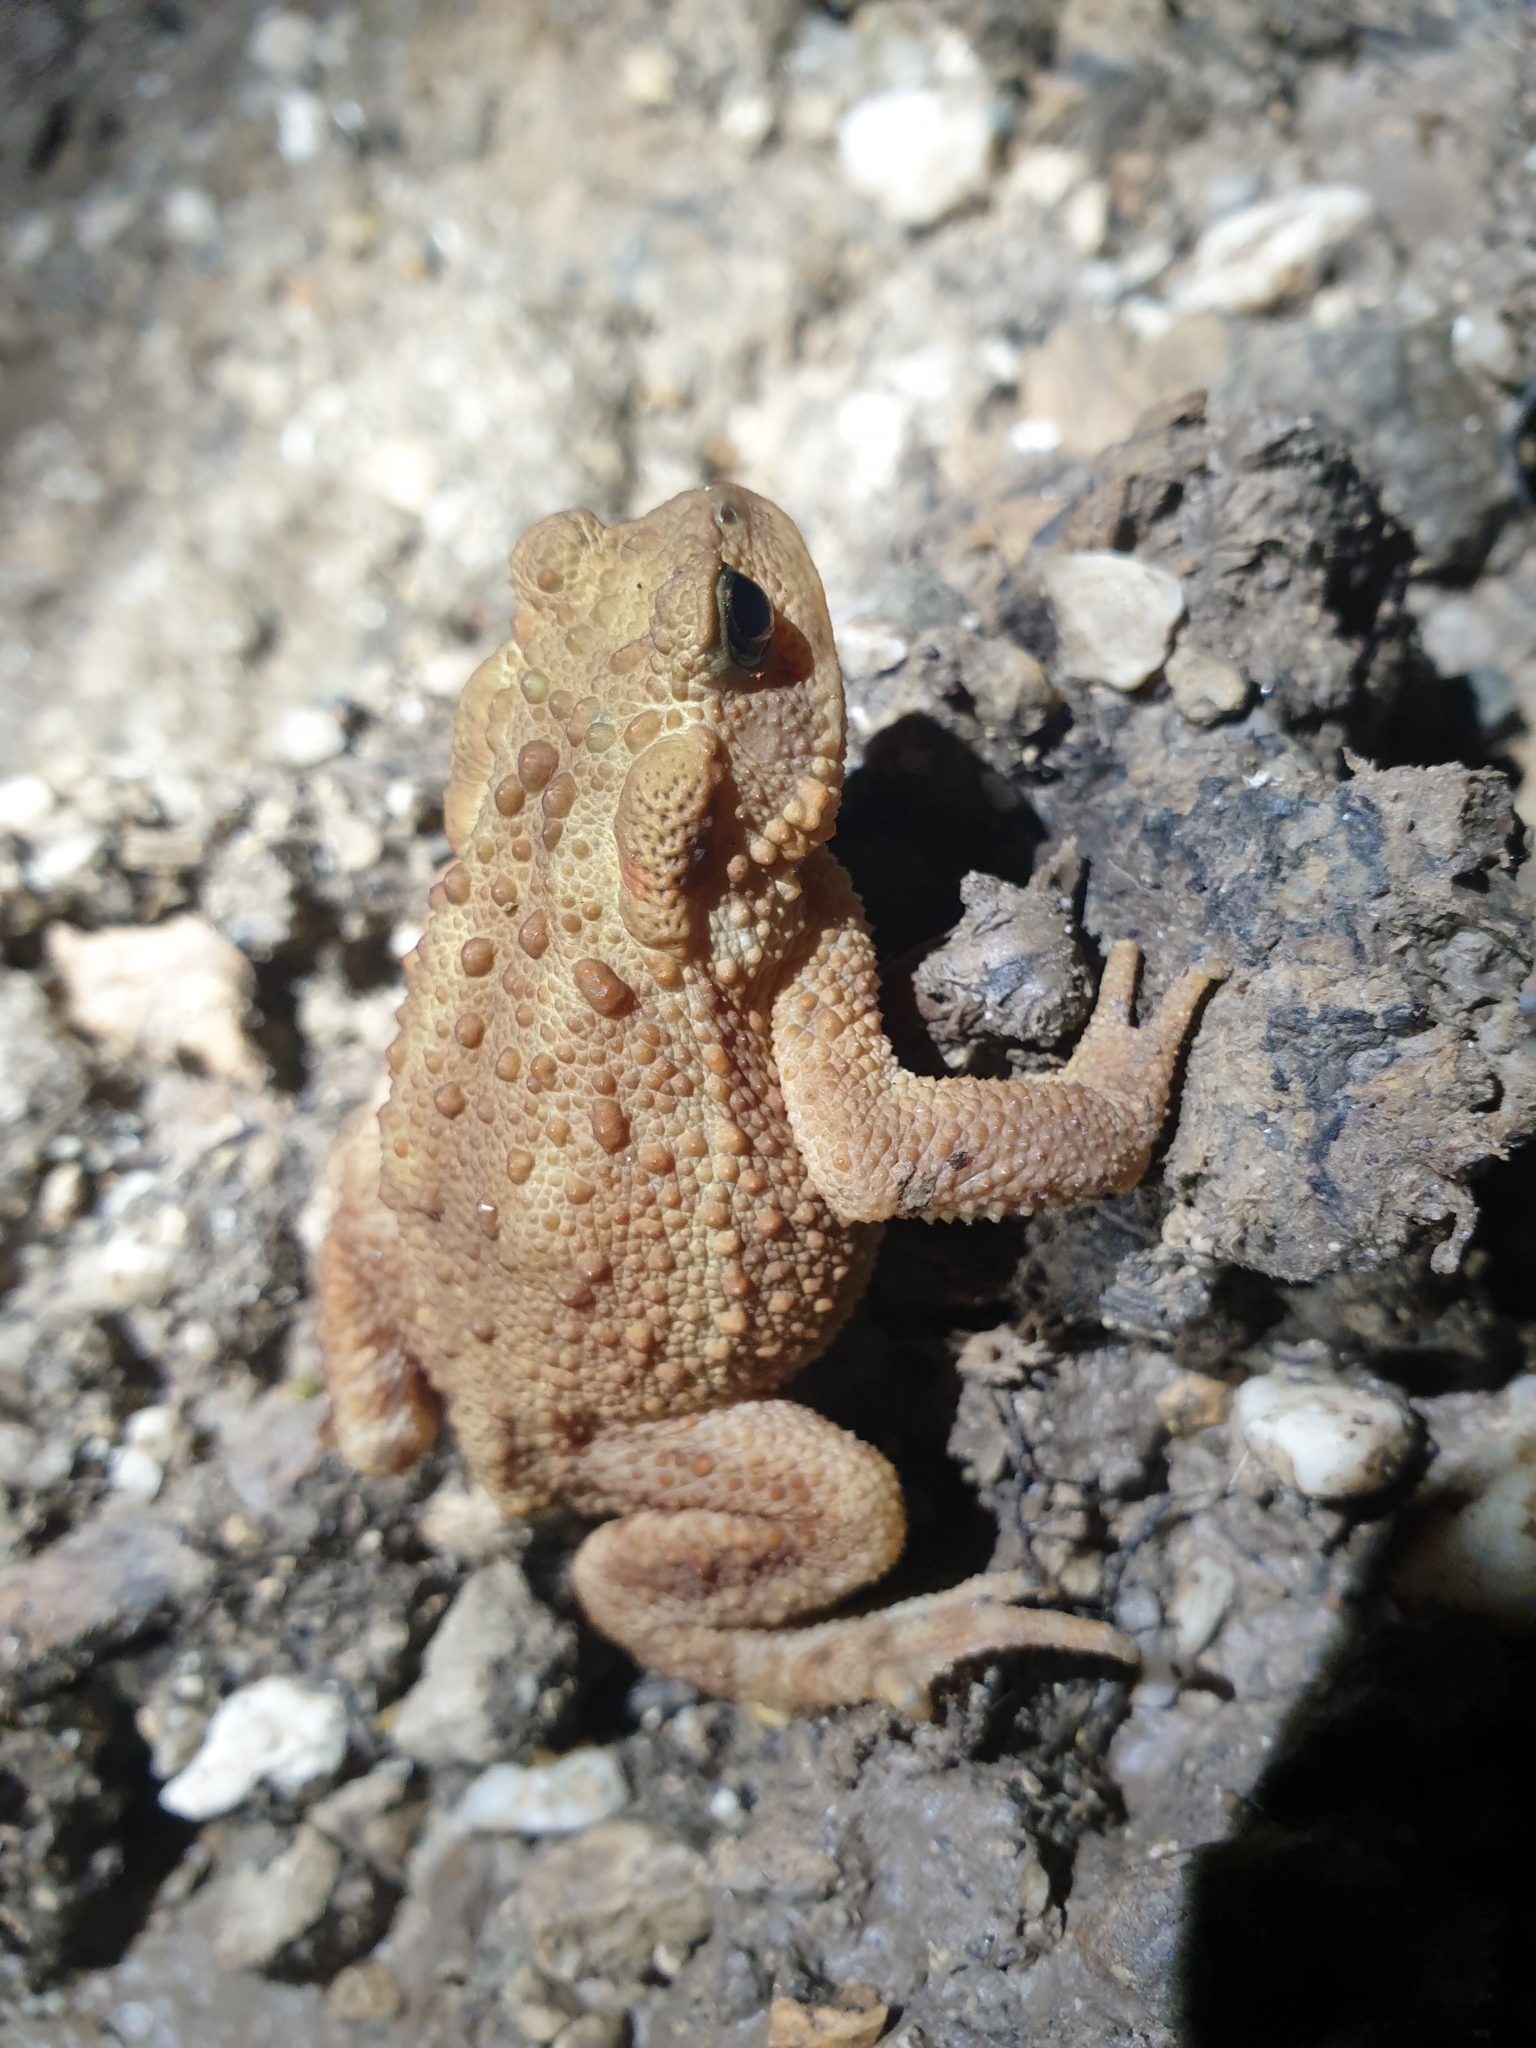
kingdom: Animalia
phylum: Chordata
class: Amphibia
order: Anura
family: Bufonidae
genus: Bufo
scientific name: Bufo bufo
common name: Common toad
